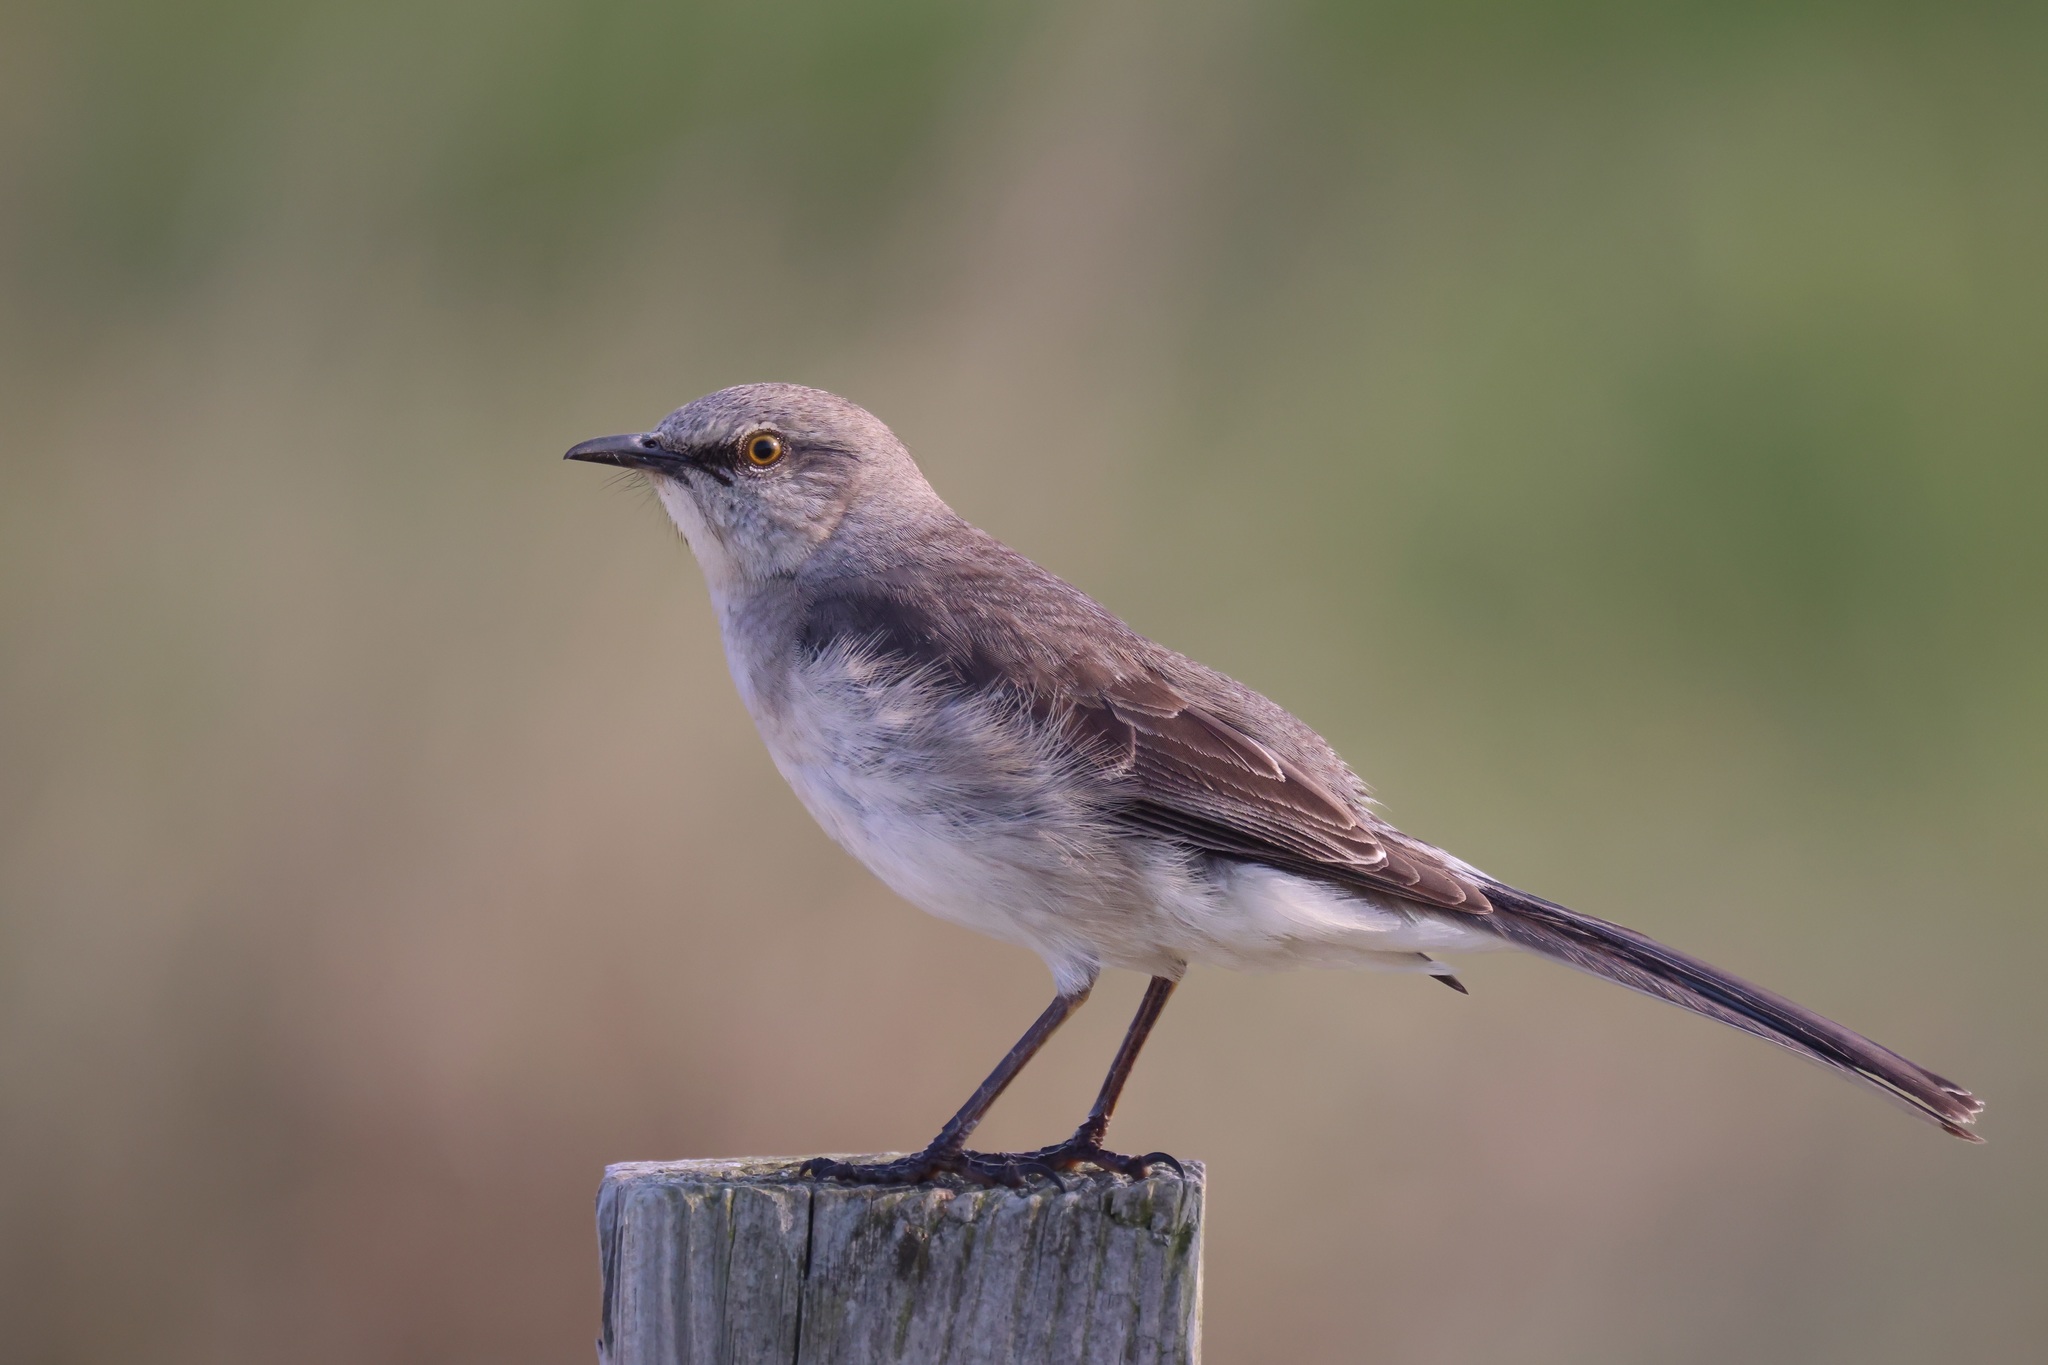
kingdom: Animalia
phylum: Chordata
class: Aves
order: Passeriformes
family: Mimidae
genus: Mimus
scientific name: Mimus polyglottos
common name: Northern mockingbird
